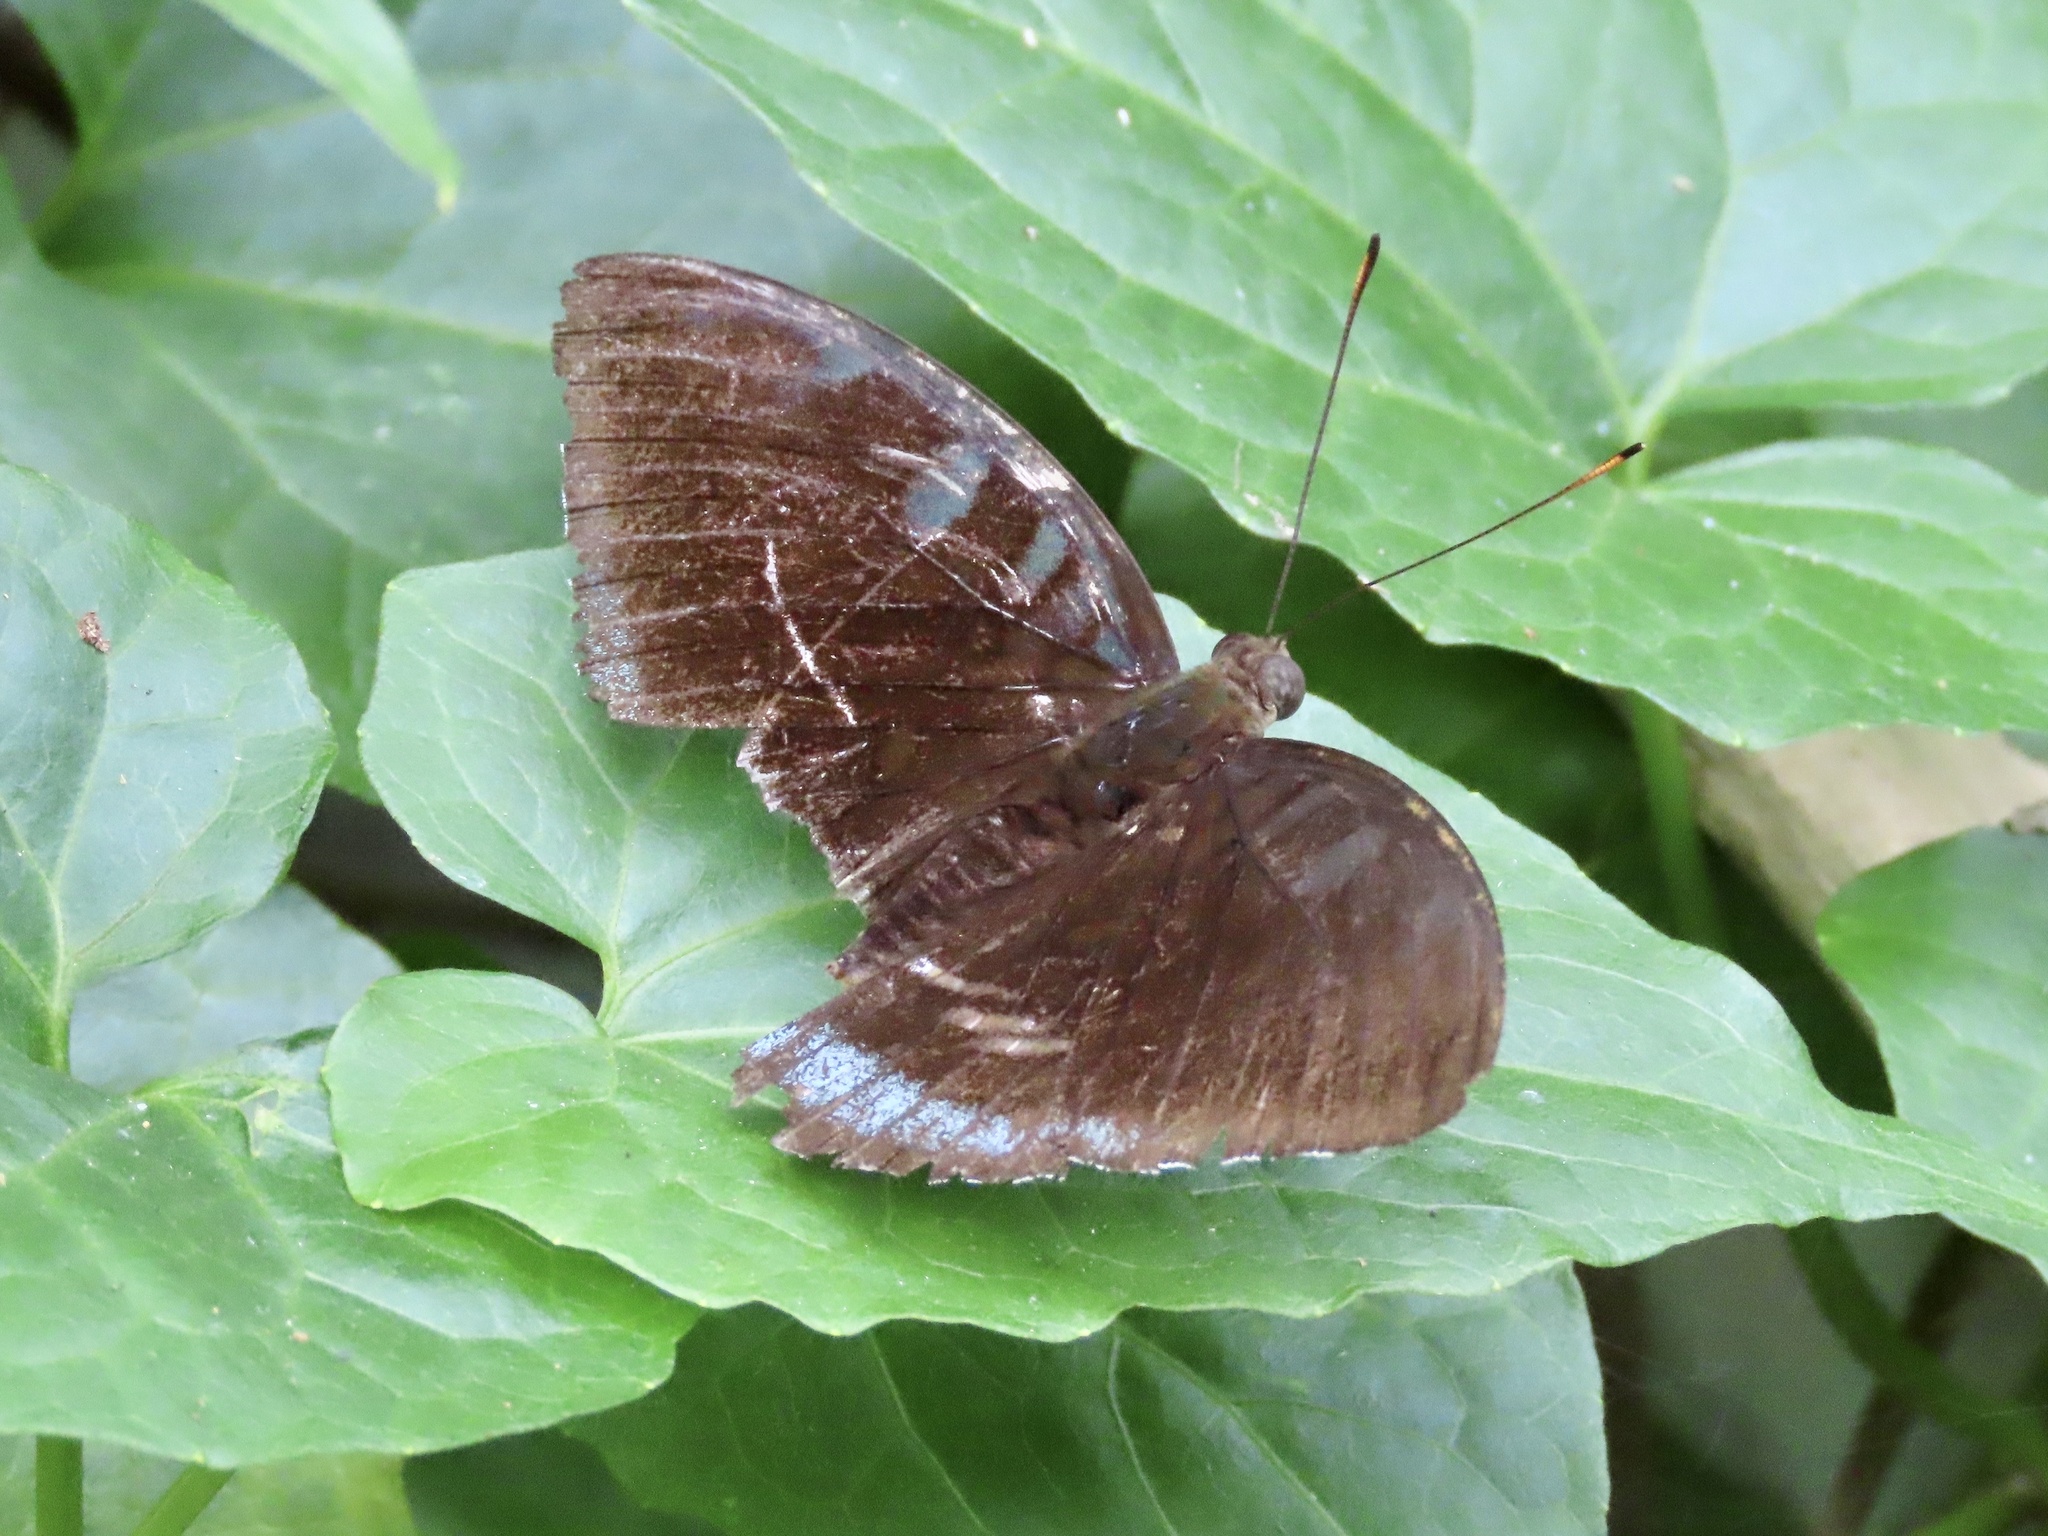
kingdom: Animalia
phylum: Arthropoda
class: Insecta
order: Lepidoptera
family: Nymphalidae
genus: Tanaecia
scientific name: Tanaecia
